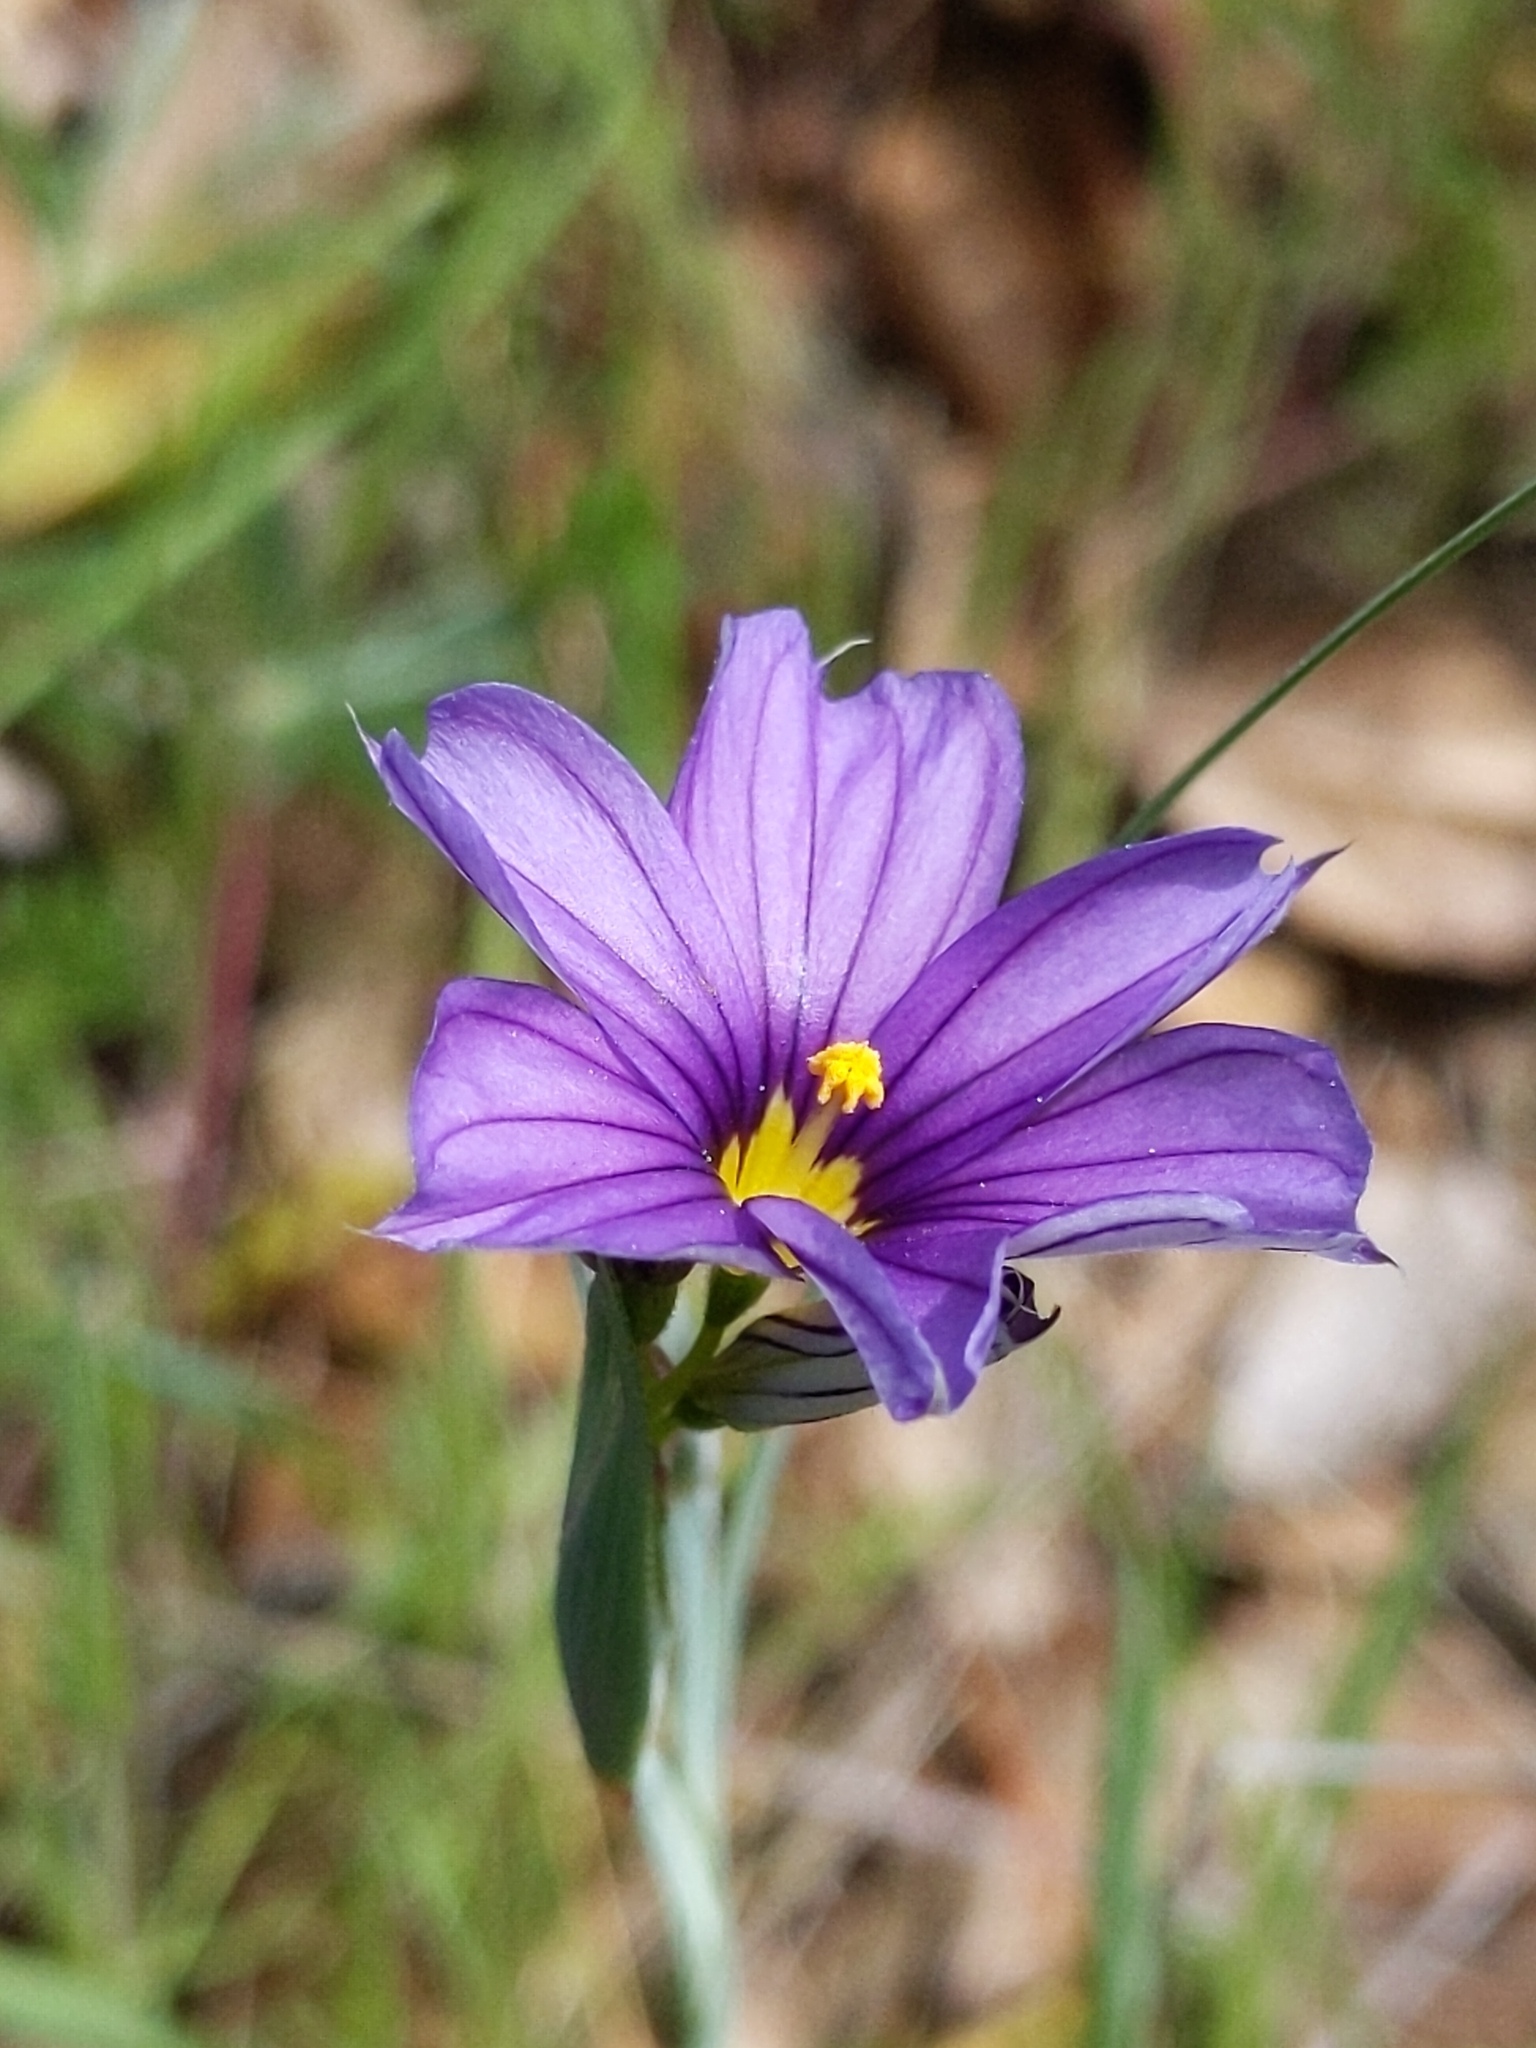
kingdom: Plantae
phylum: Tracheophyta
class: Liliopsida
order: Asparagales
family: Iridaceae
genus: Sisyrinchium
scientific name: Sisyrinchium bellum
